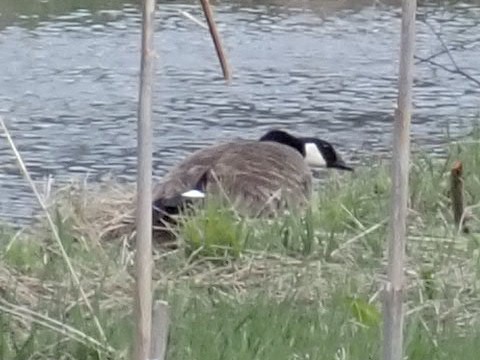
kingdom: Animalia
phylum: Chordata
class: Aves
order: Anseriformes
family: Anatidae
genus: Branta
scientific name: Branta canadensis
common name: Canada goose
